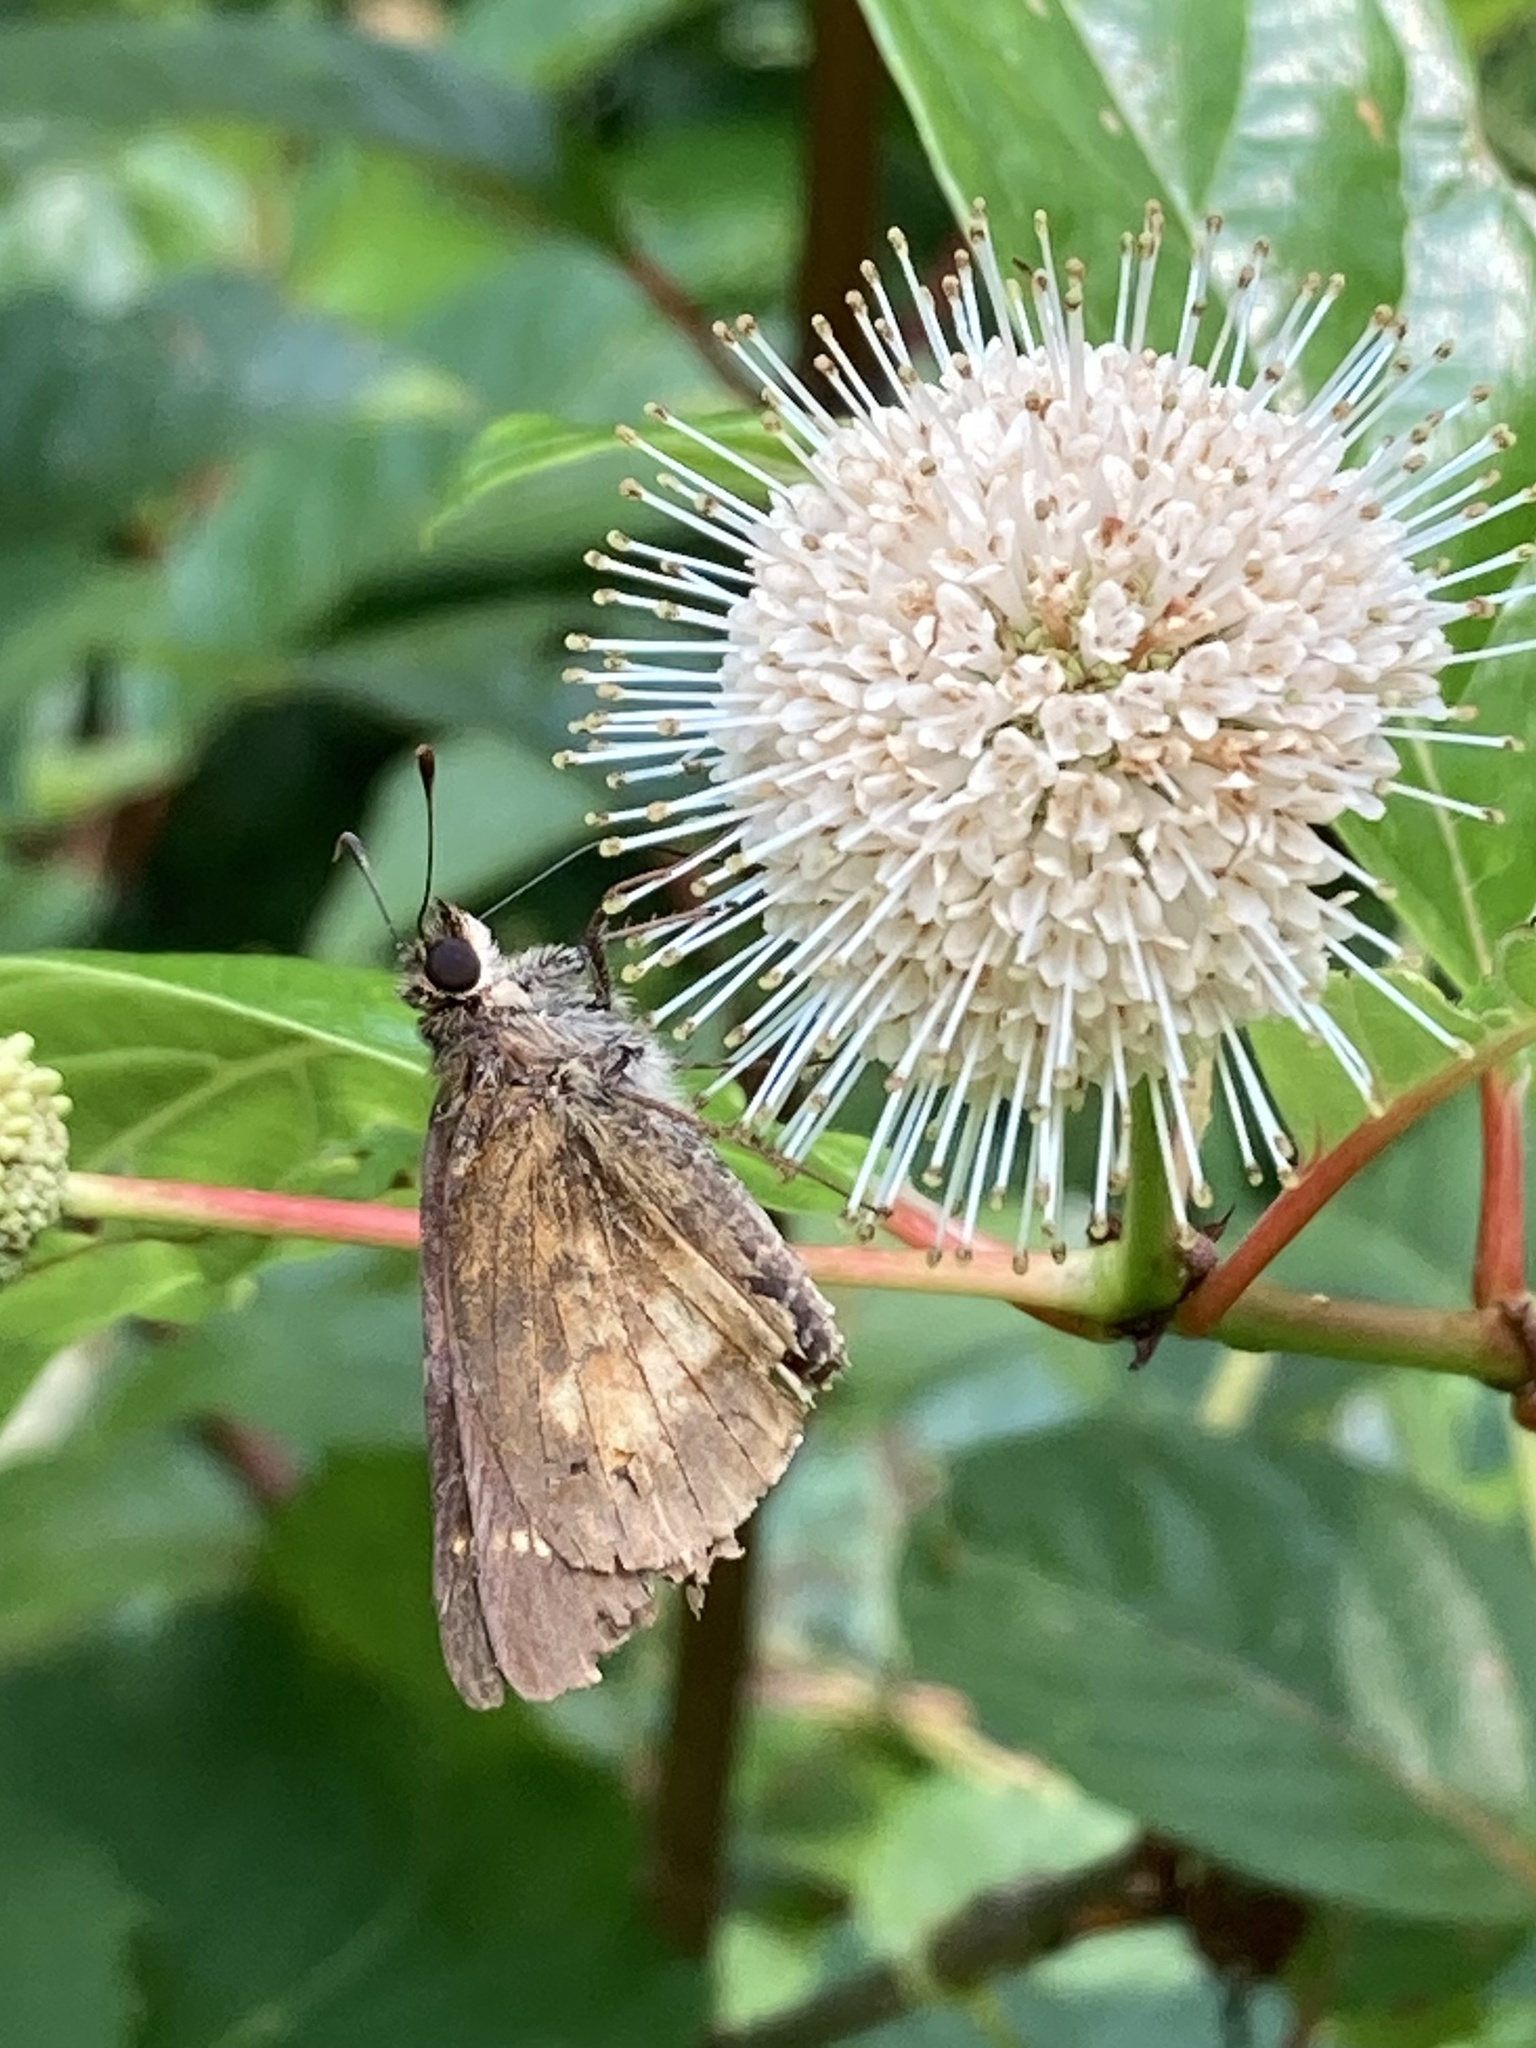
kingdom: Animalia
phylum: Arthropoda
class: Insecta
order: Lepidoptera
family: Hesperiidae
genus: Poanes
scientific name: Poanes viator
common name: Broad-winged skipper
